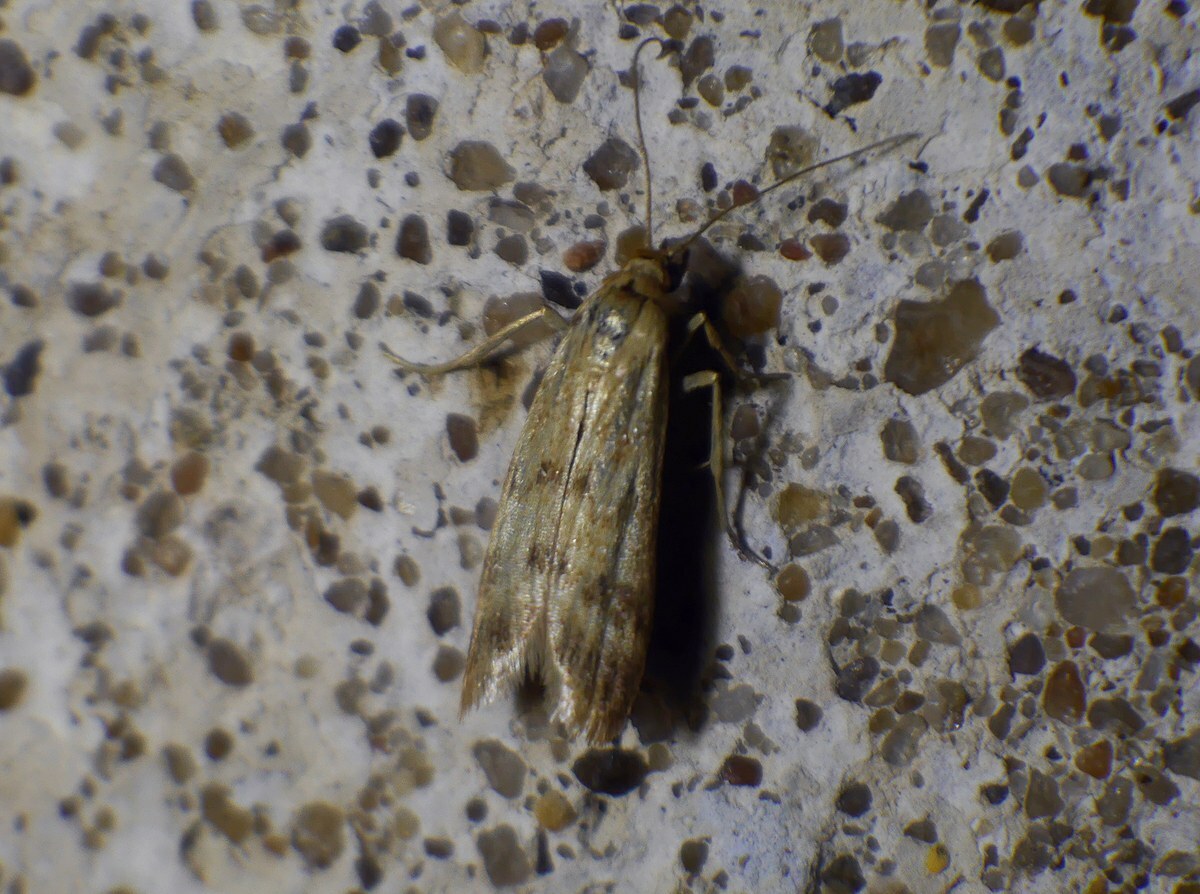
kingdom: Animalia
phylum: Arthropoda
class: Insecta
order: Lepidoptera
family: Pyralidae
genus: Homoeosoma
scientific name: Homoeosoma sinuella
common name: Twin-barred knot-horn
